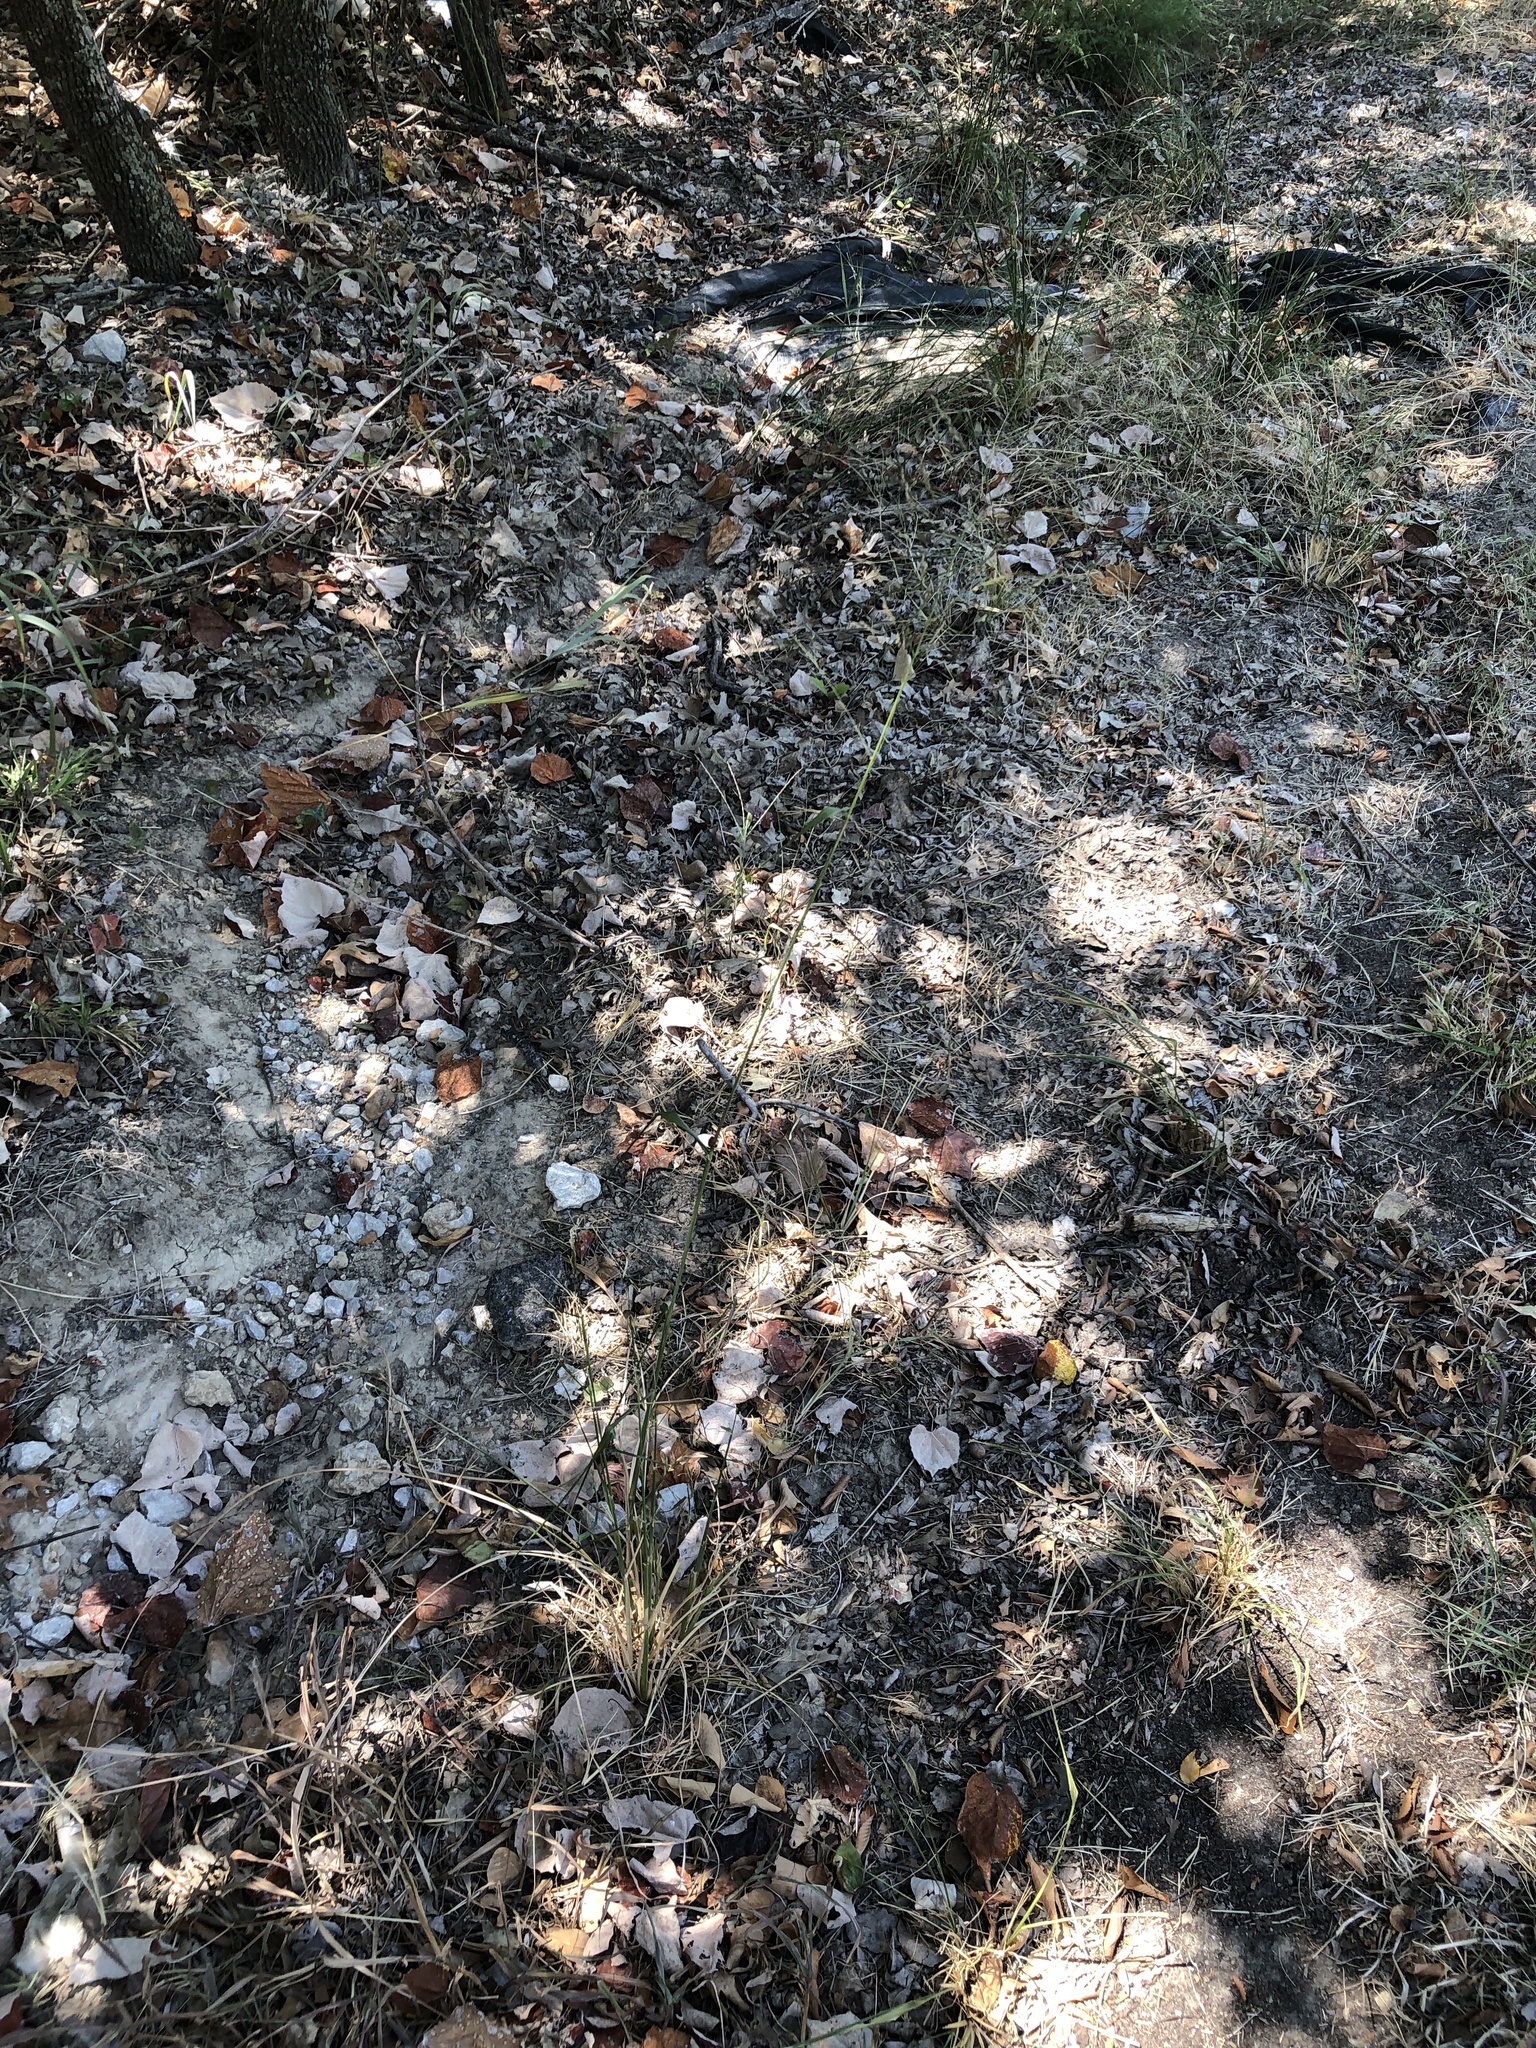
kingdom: Plantae
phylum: Tracheophyta
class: Liliopsida
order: Poales
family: Poaceae
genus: Tridens
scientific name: Tridens flavus
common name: Purpletop
